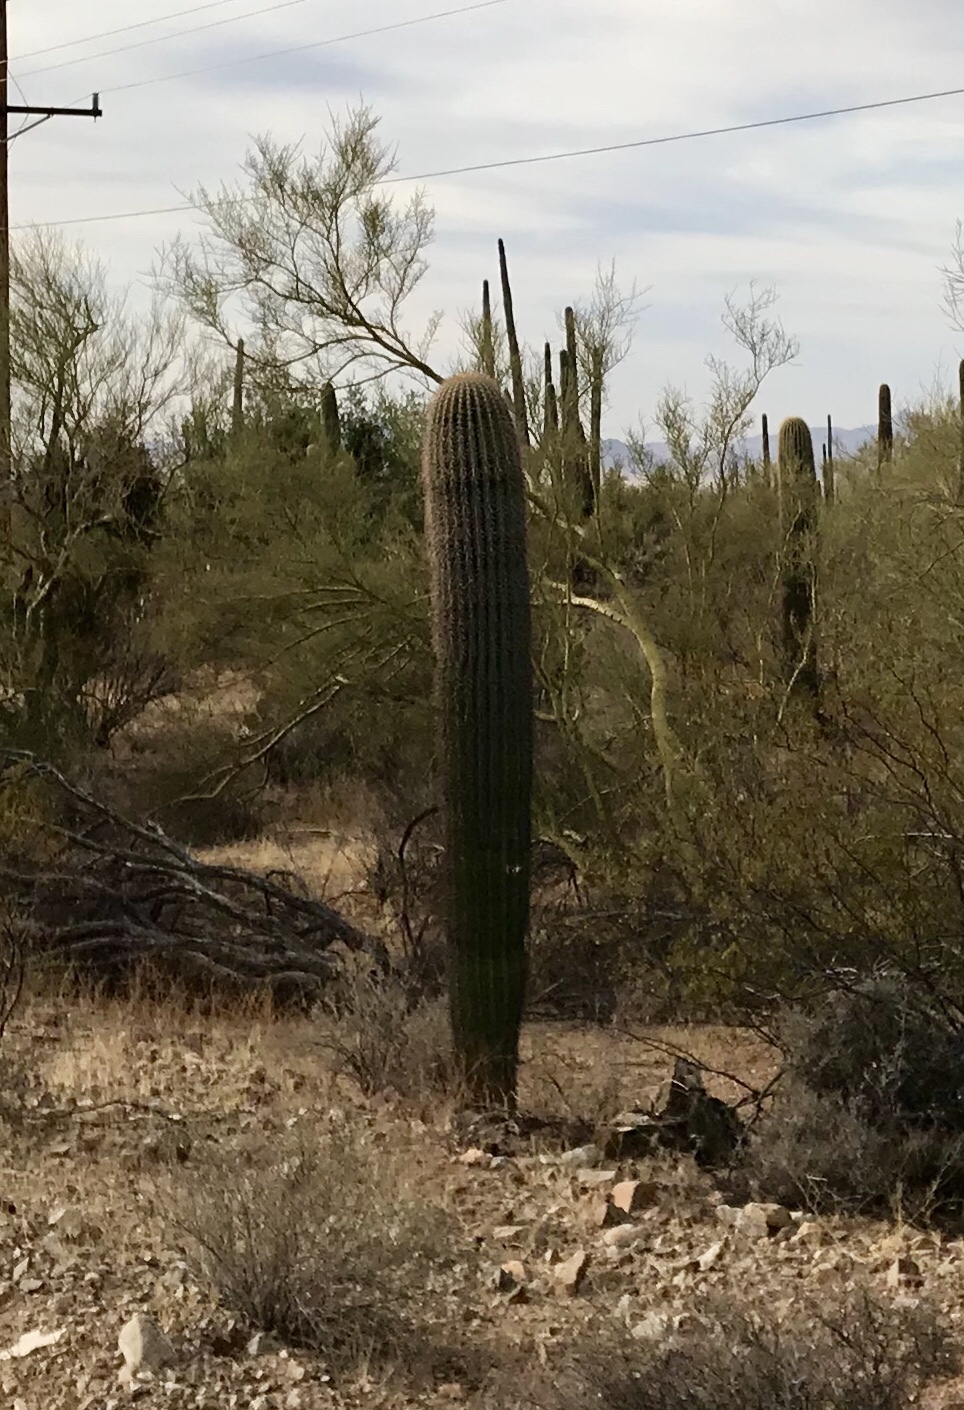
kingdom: Plantae
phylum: Tracheophyta
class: Magnoliopsida
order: Caryophyllales
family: Cactaceae
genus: Carnegiea
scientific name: Carnegiea gigantea
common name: Saguaro
